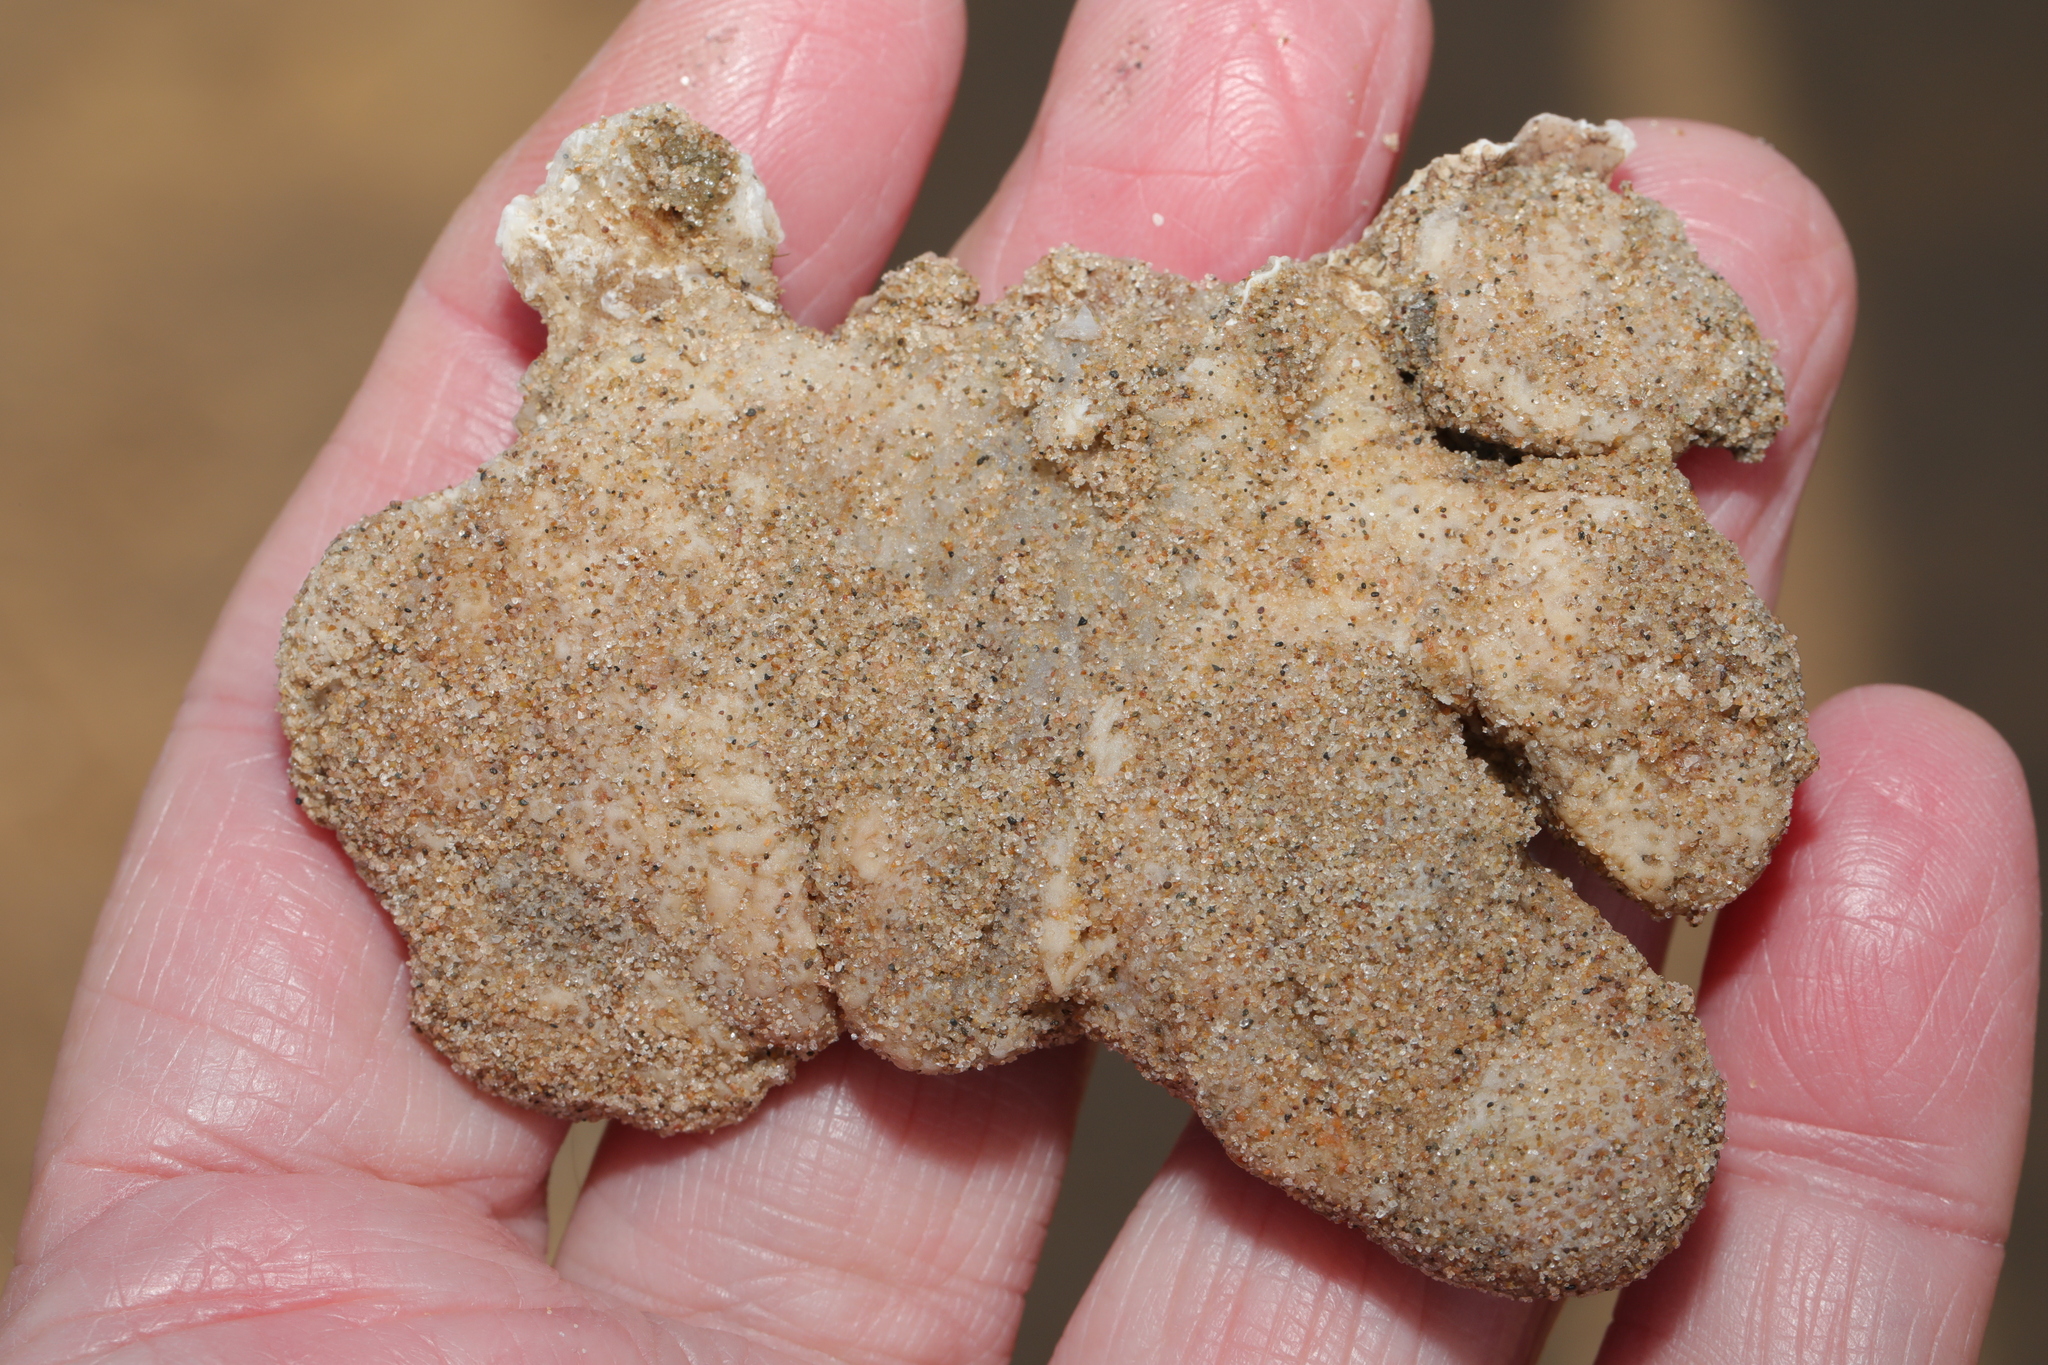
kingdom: Animalia
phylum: Cnidaria
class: Anthozoa
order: Malacalcyonacea
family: Alcyoniidae
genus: Alcyonium
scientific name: Alcyonium digitatum
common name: Dead man's fingers
